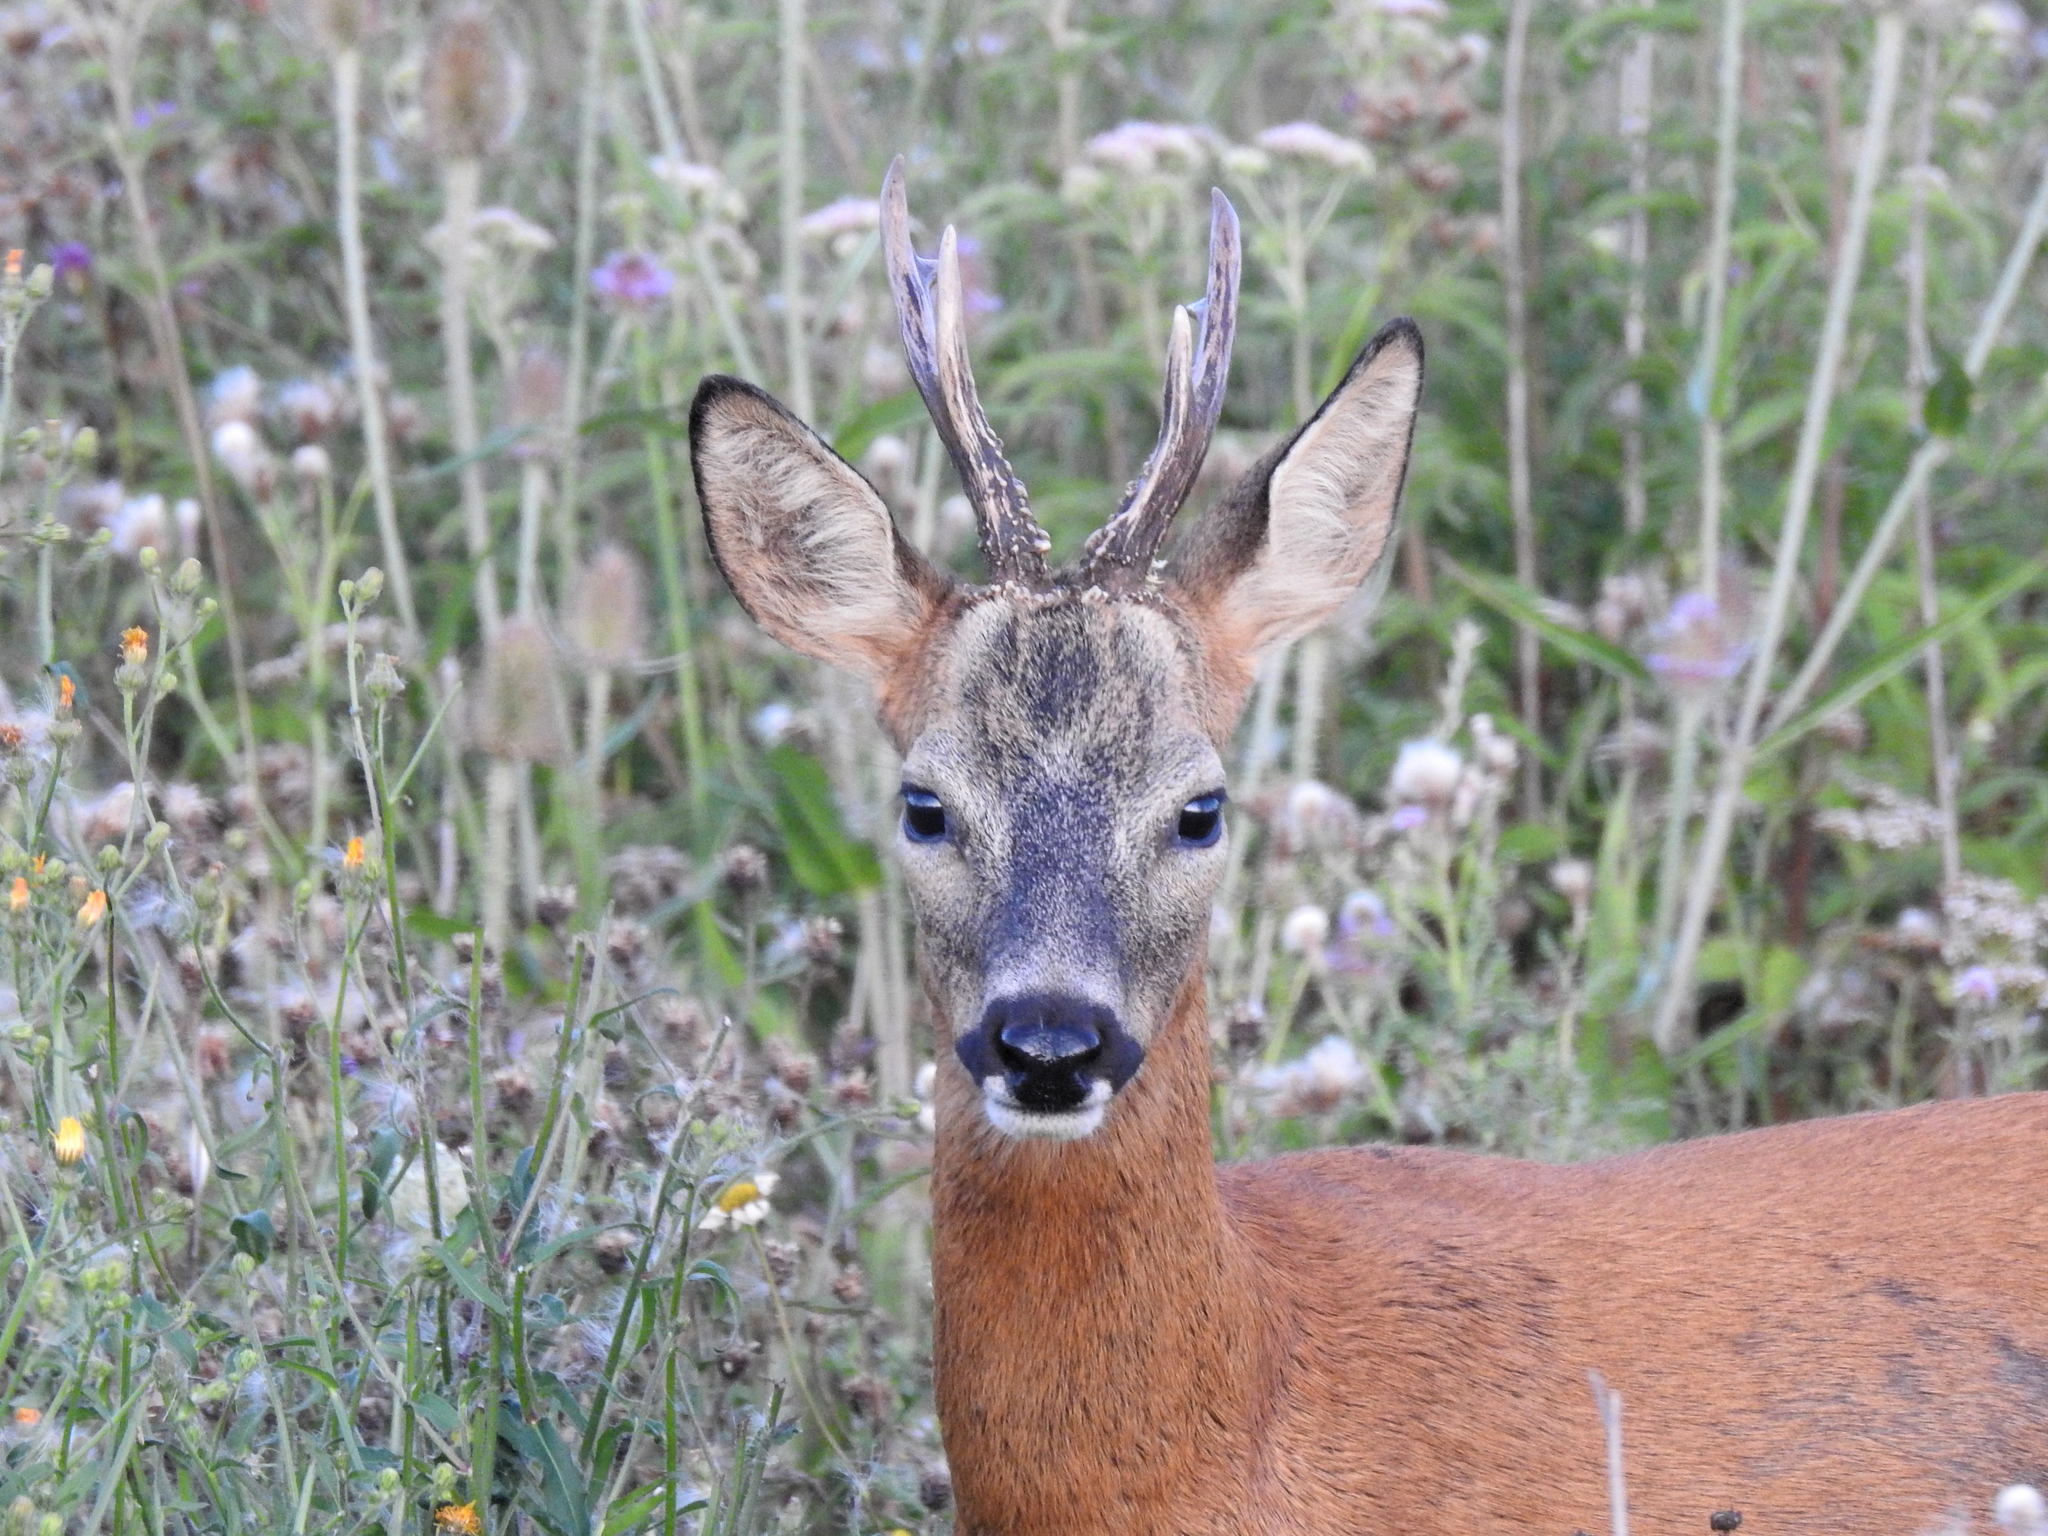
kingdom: Animalia
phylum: Chordata
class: Mammalia
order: Artiodactyla
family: Cervidae
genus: Capreolus
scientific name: Capreolus capreolus
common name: Western roe deer
